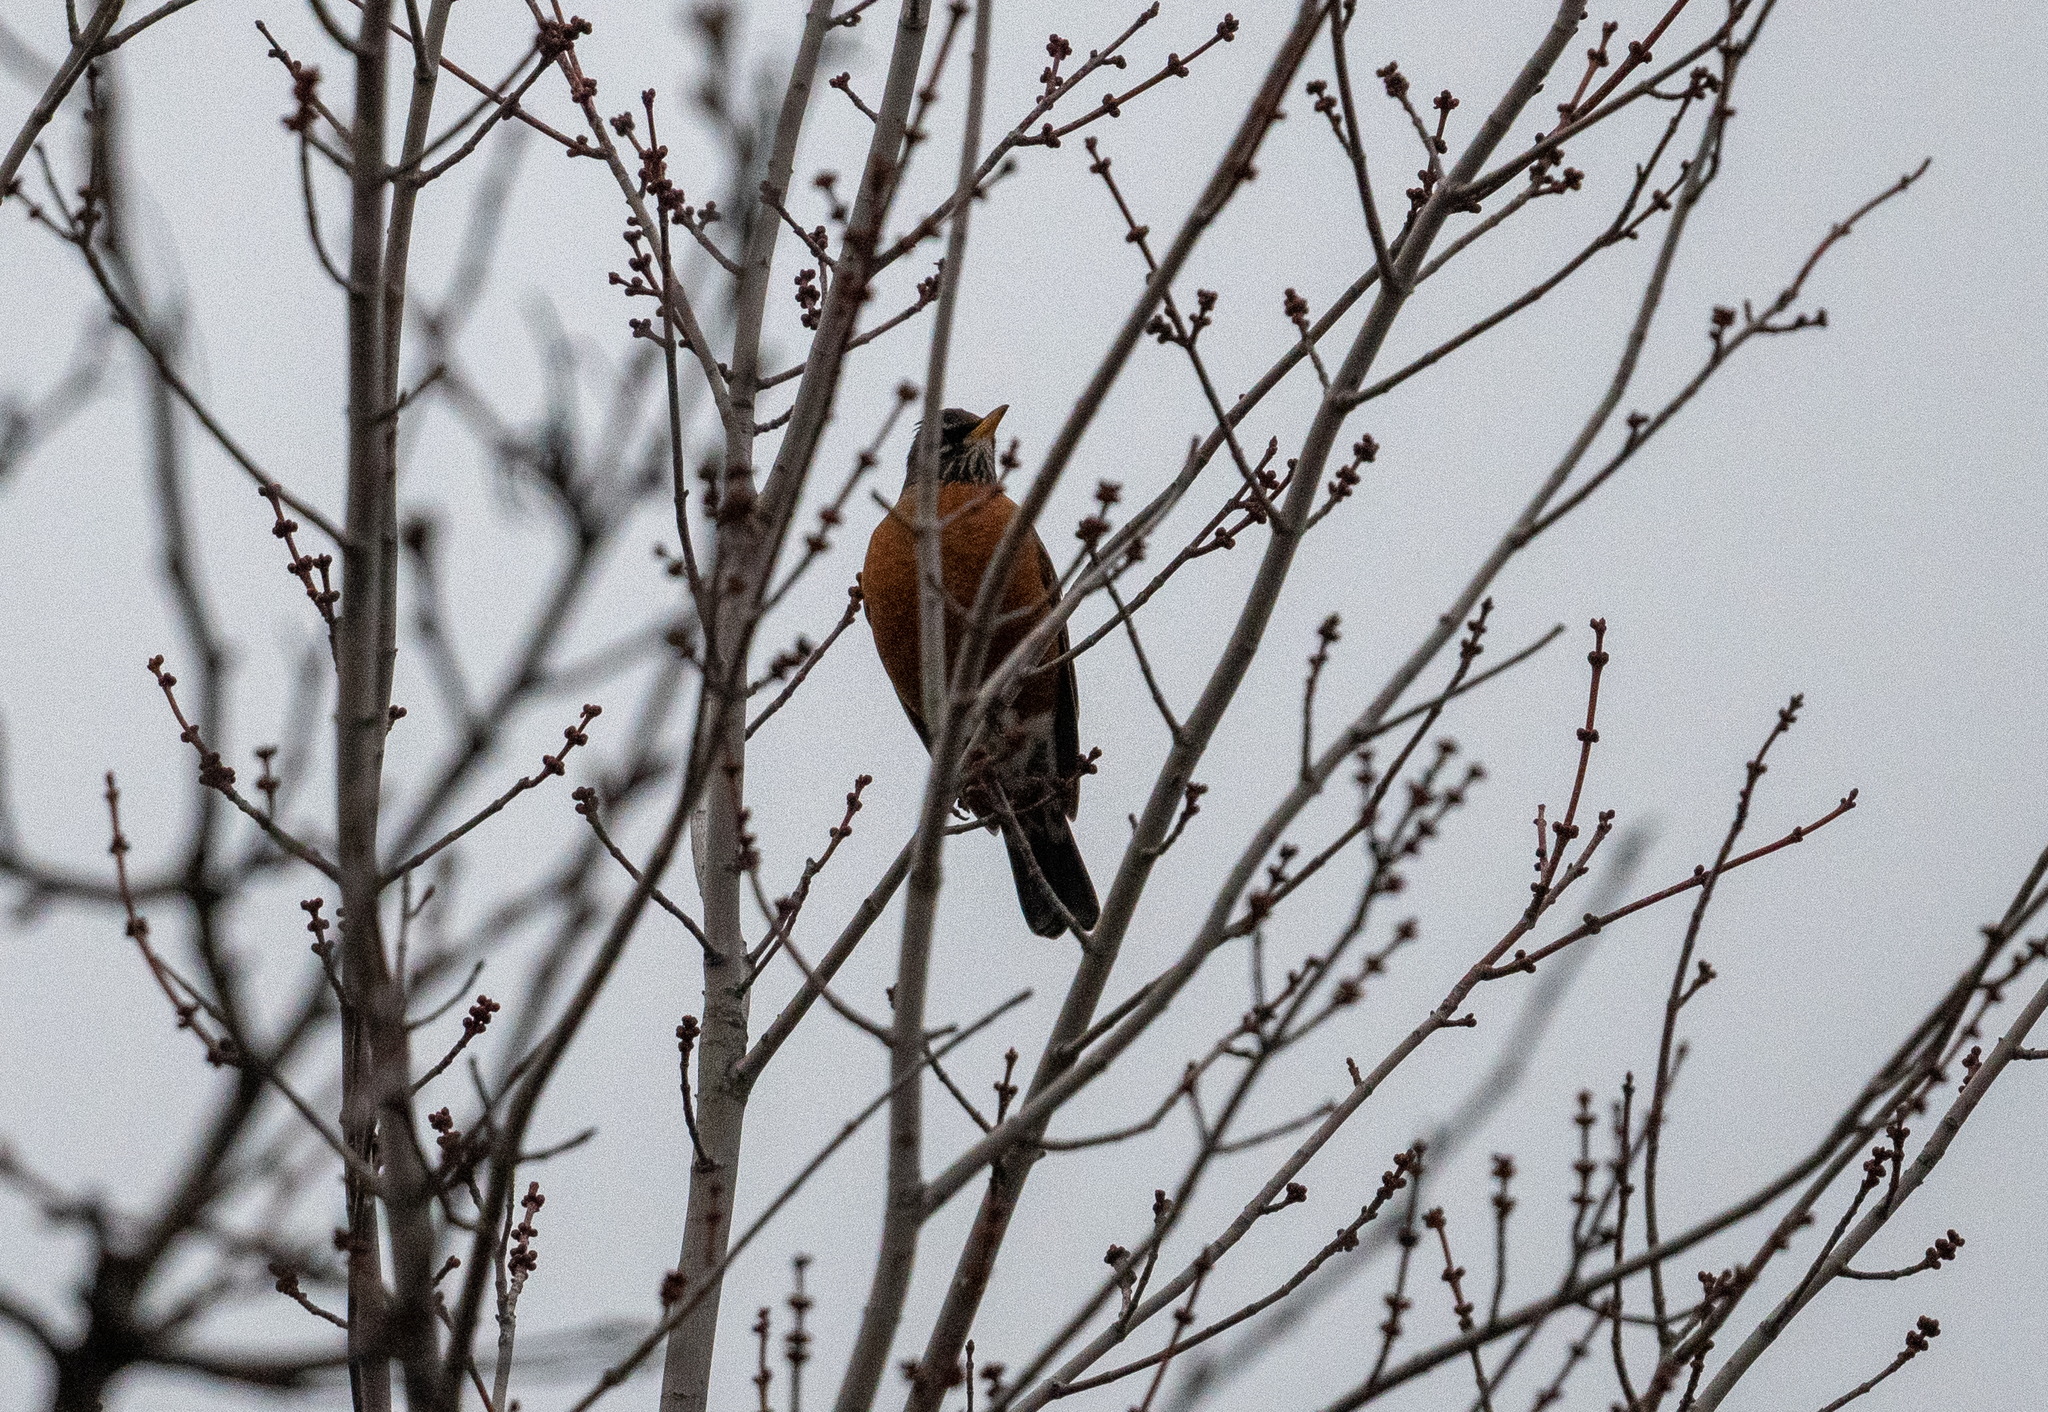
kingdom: Animalia
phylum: Chordata
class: Aves
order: Passeriformes
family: Turdidae
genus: Turdus
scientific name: Turdus migratorius
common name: American robin
